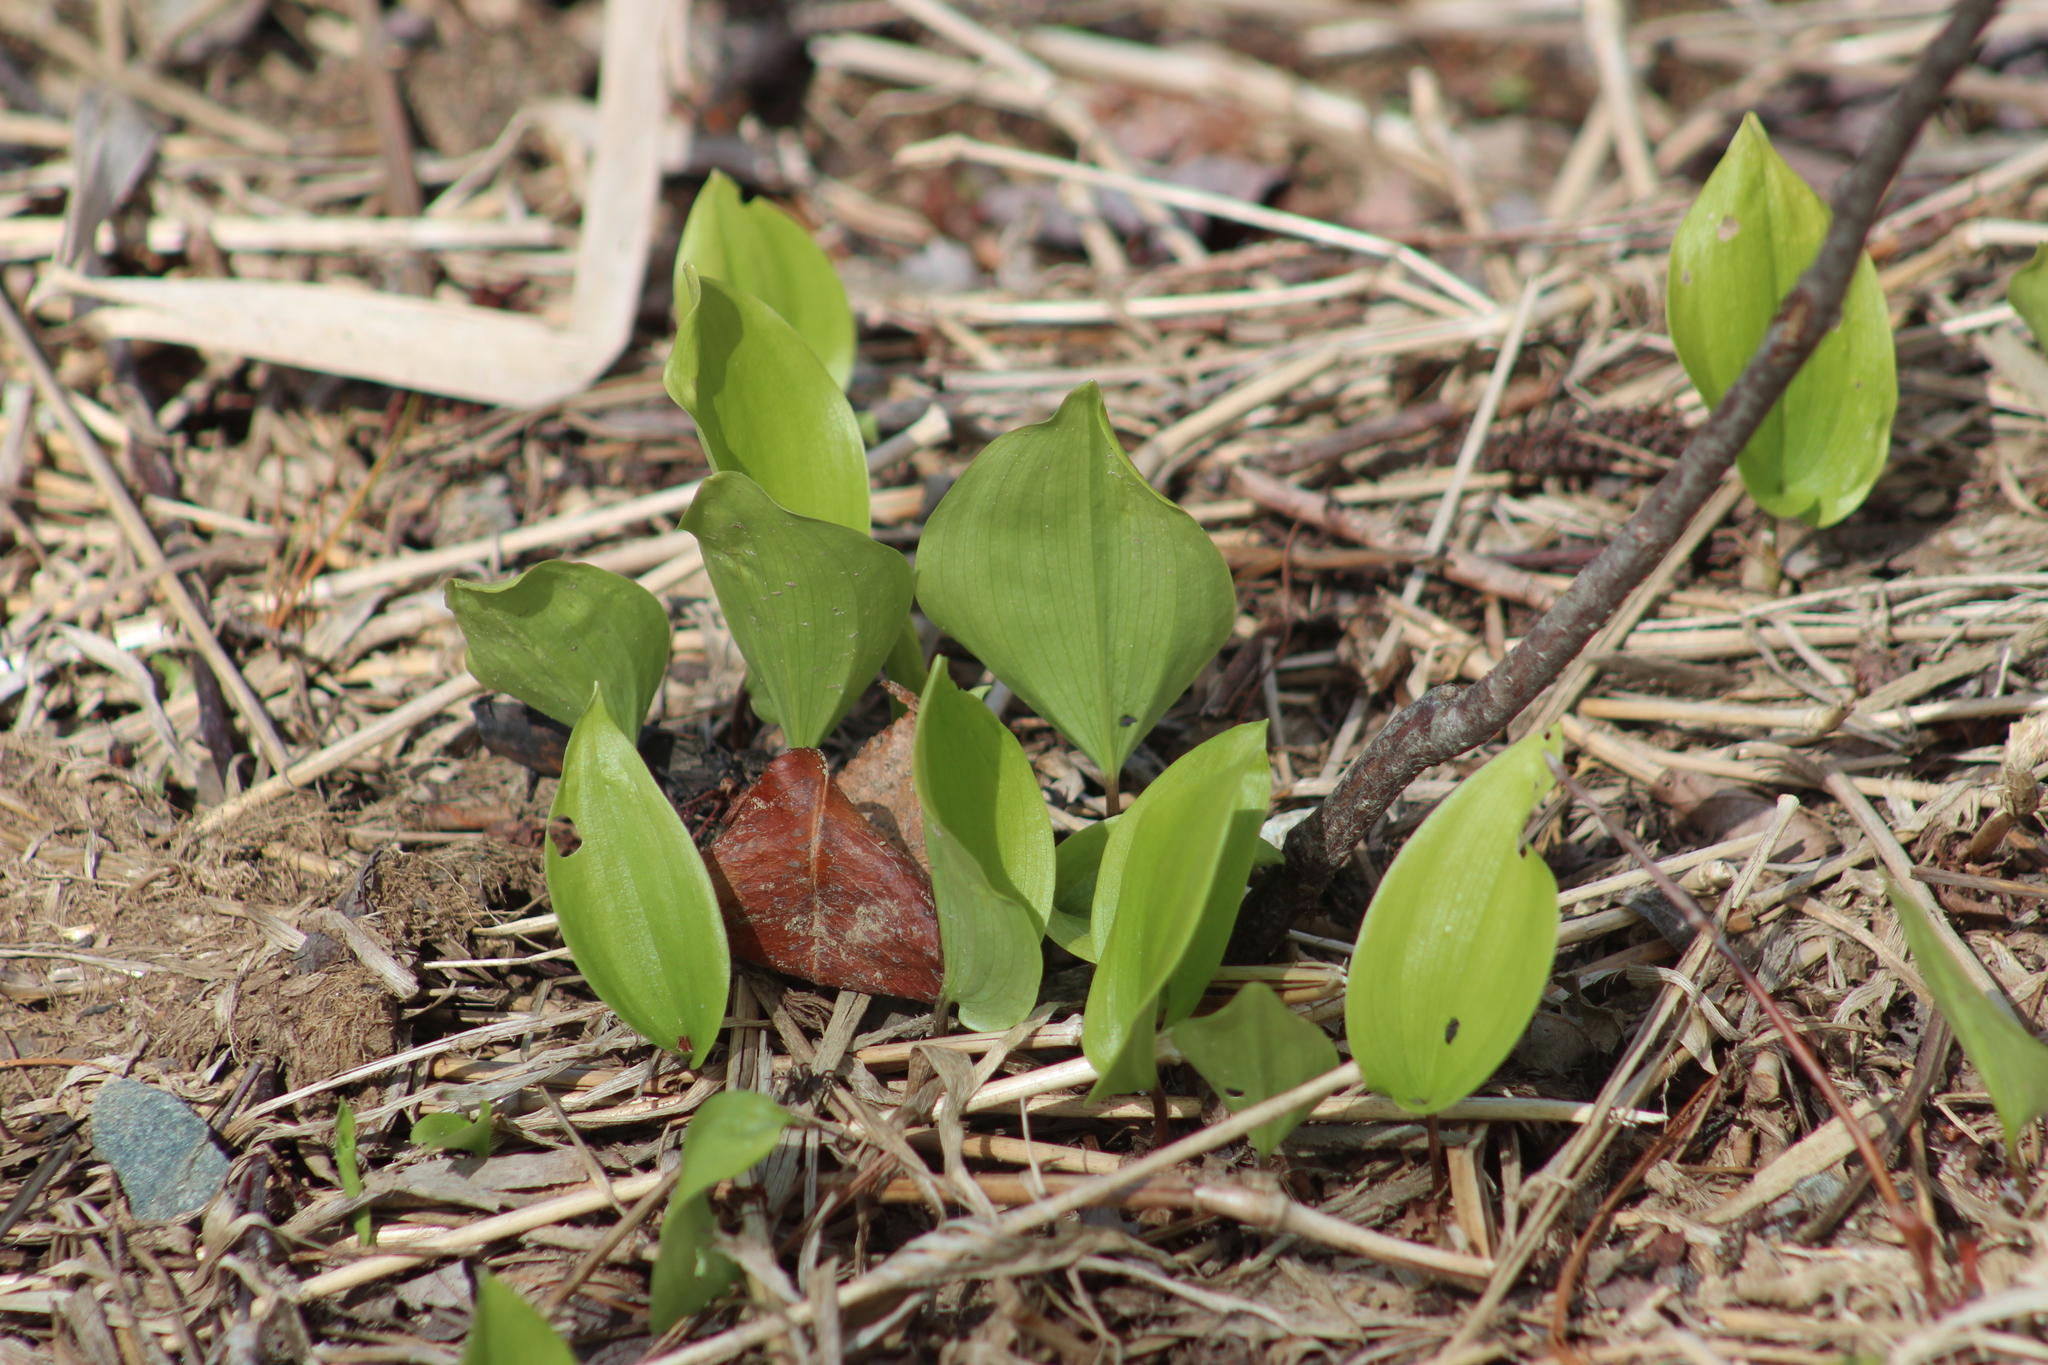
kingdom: Plantae
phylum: Tracheophyta
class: Liliopsida
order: Asparagales
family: Asparagaceae
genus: Maianthemum
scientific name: Maianthemum canadense
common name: False lily-of-the-valley
